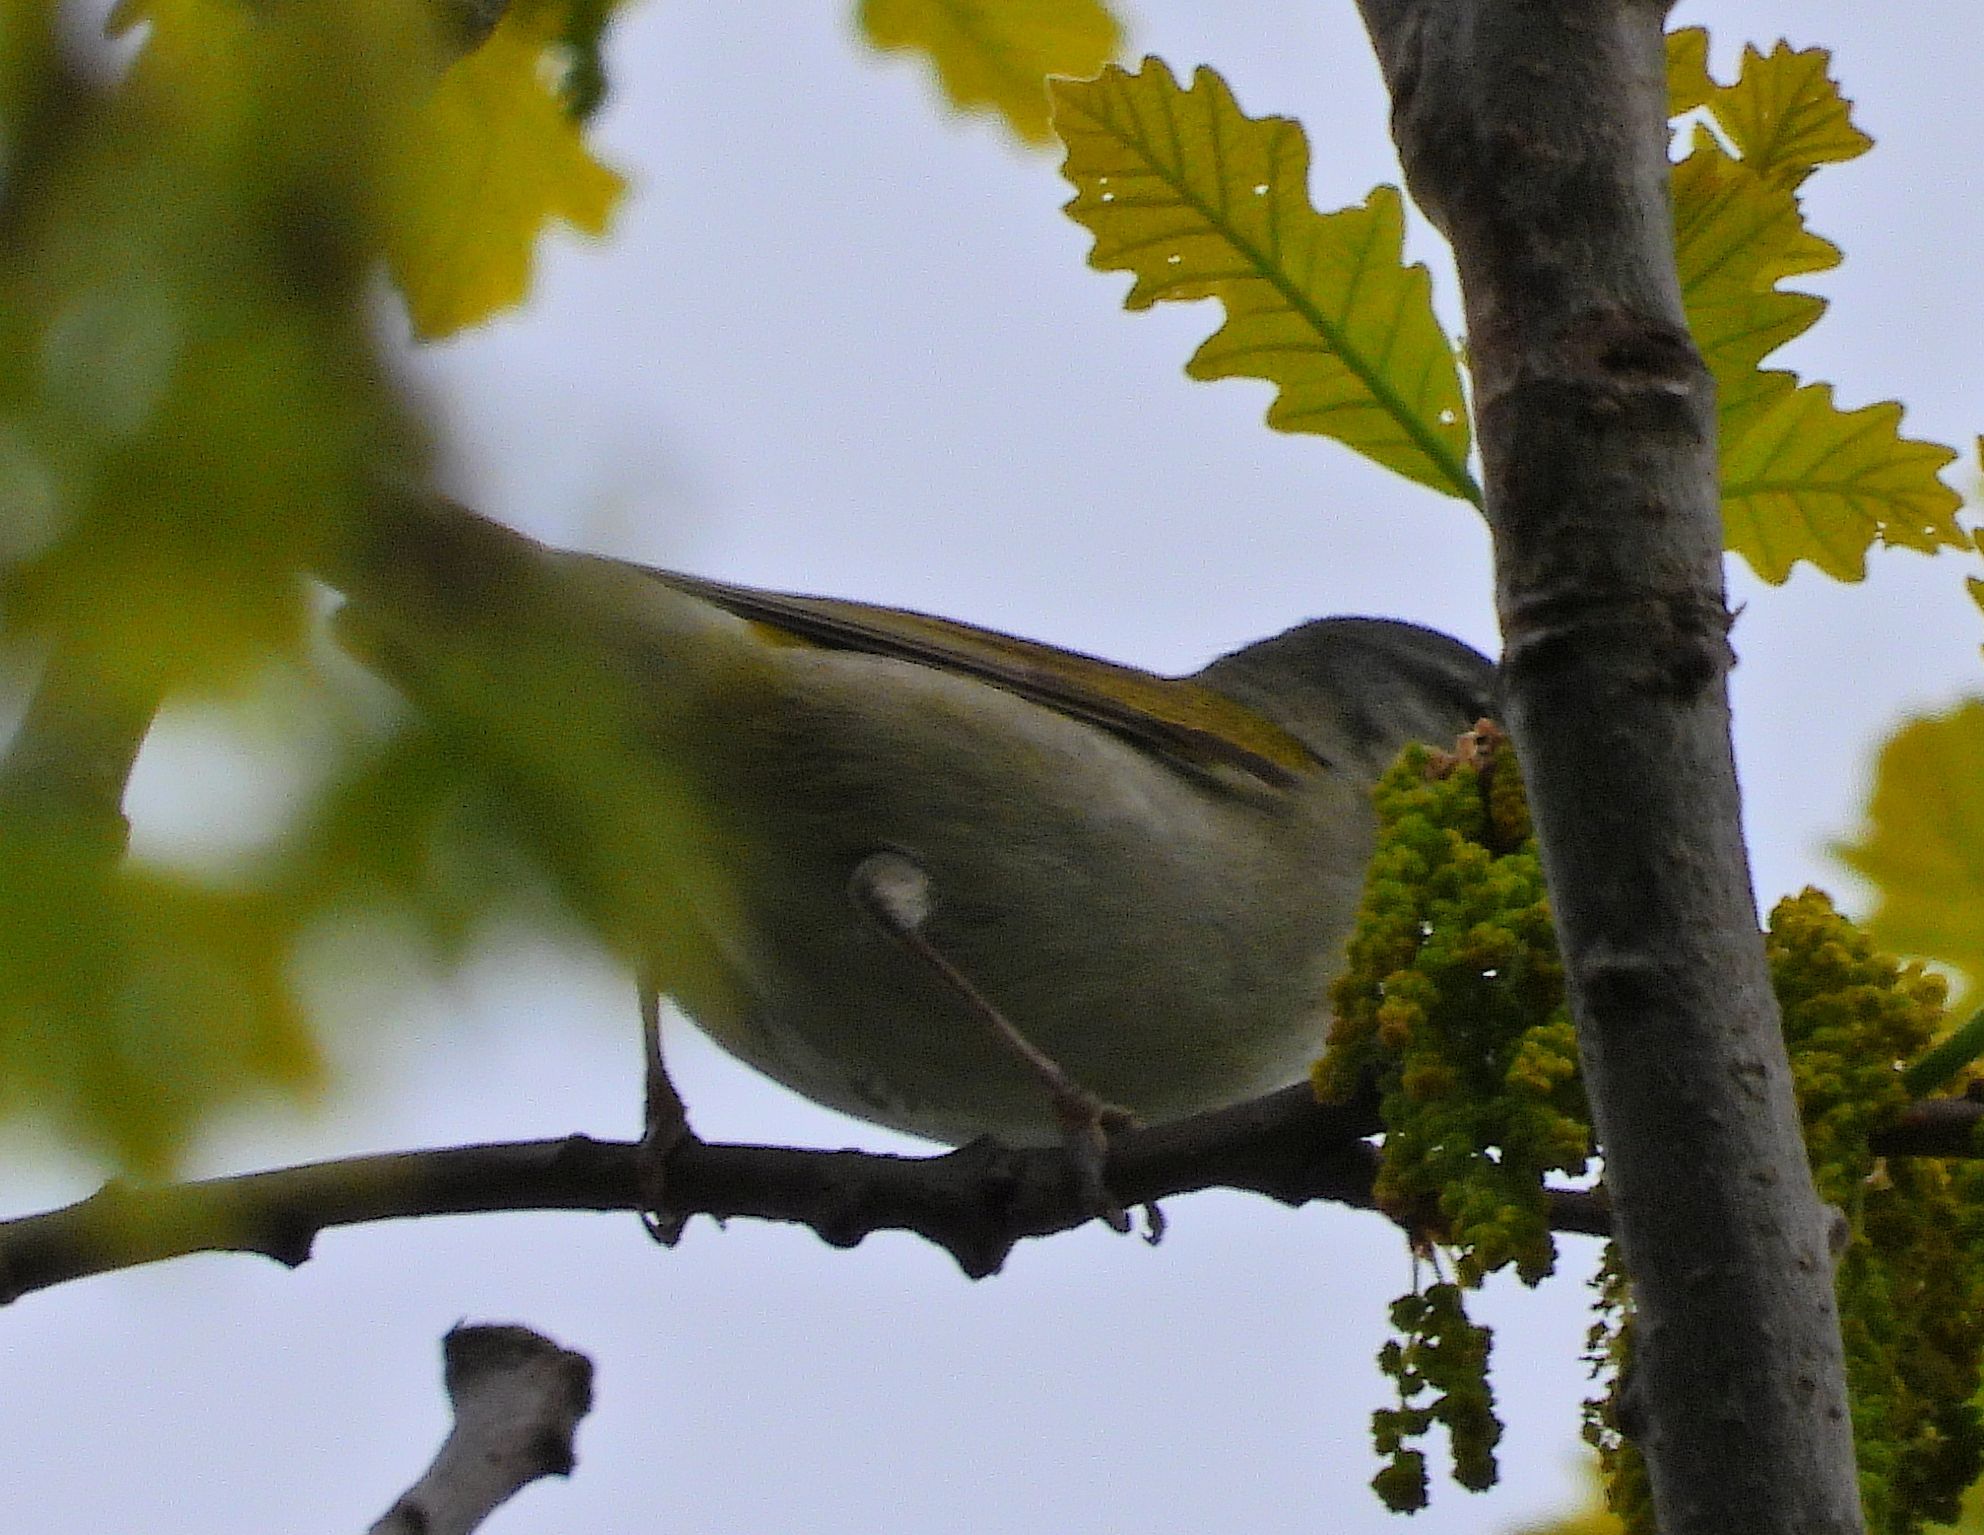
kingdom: Animalia
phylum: Chordata
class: Aves
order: Passeriformes
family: Parulidae
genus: Leiothlypis
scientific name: Leiothlypis peregrina
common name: Tennessee warbler
